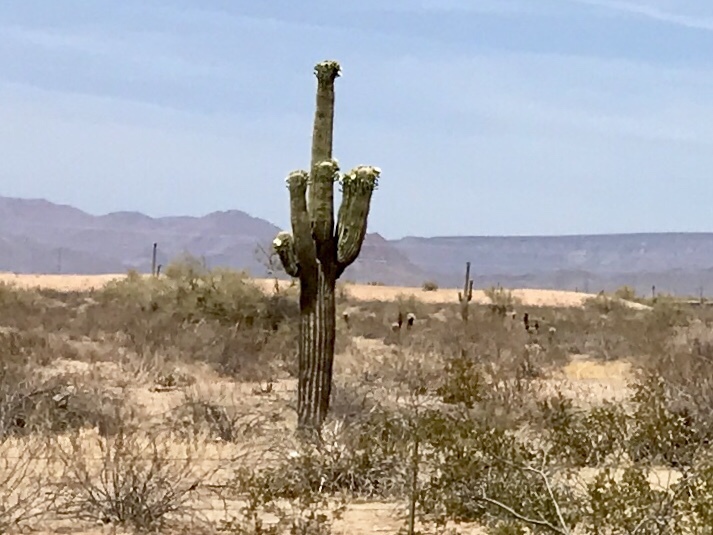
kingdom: Plantae
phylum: Tracheophyta
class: Magnoliopsida
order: Caryophyllales
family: Cactaceae
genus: Carnegiea
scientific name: Carnegiea gigantea
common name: Saguaro
